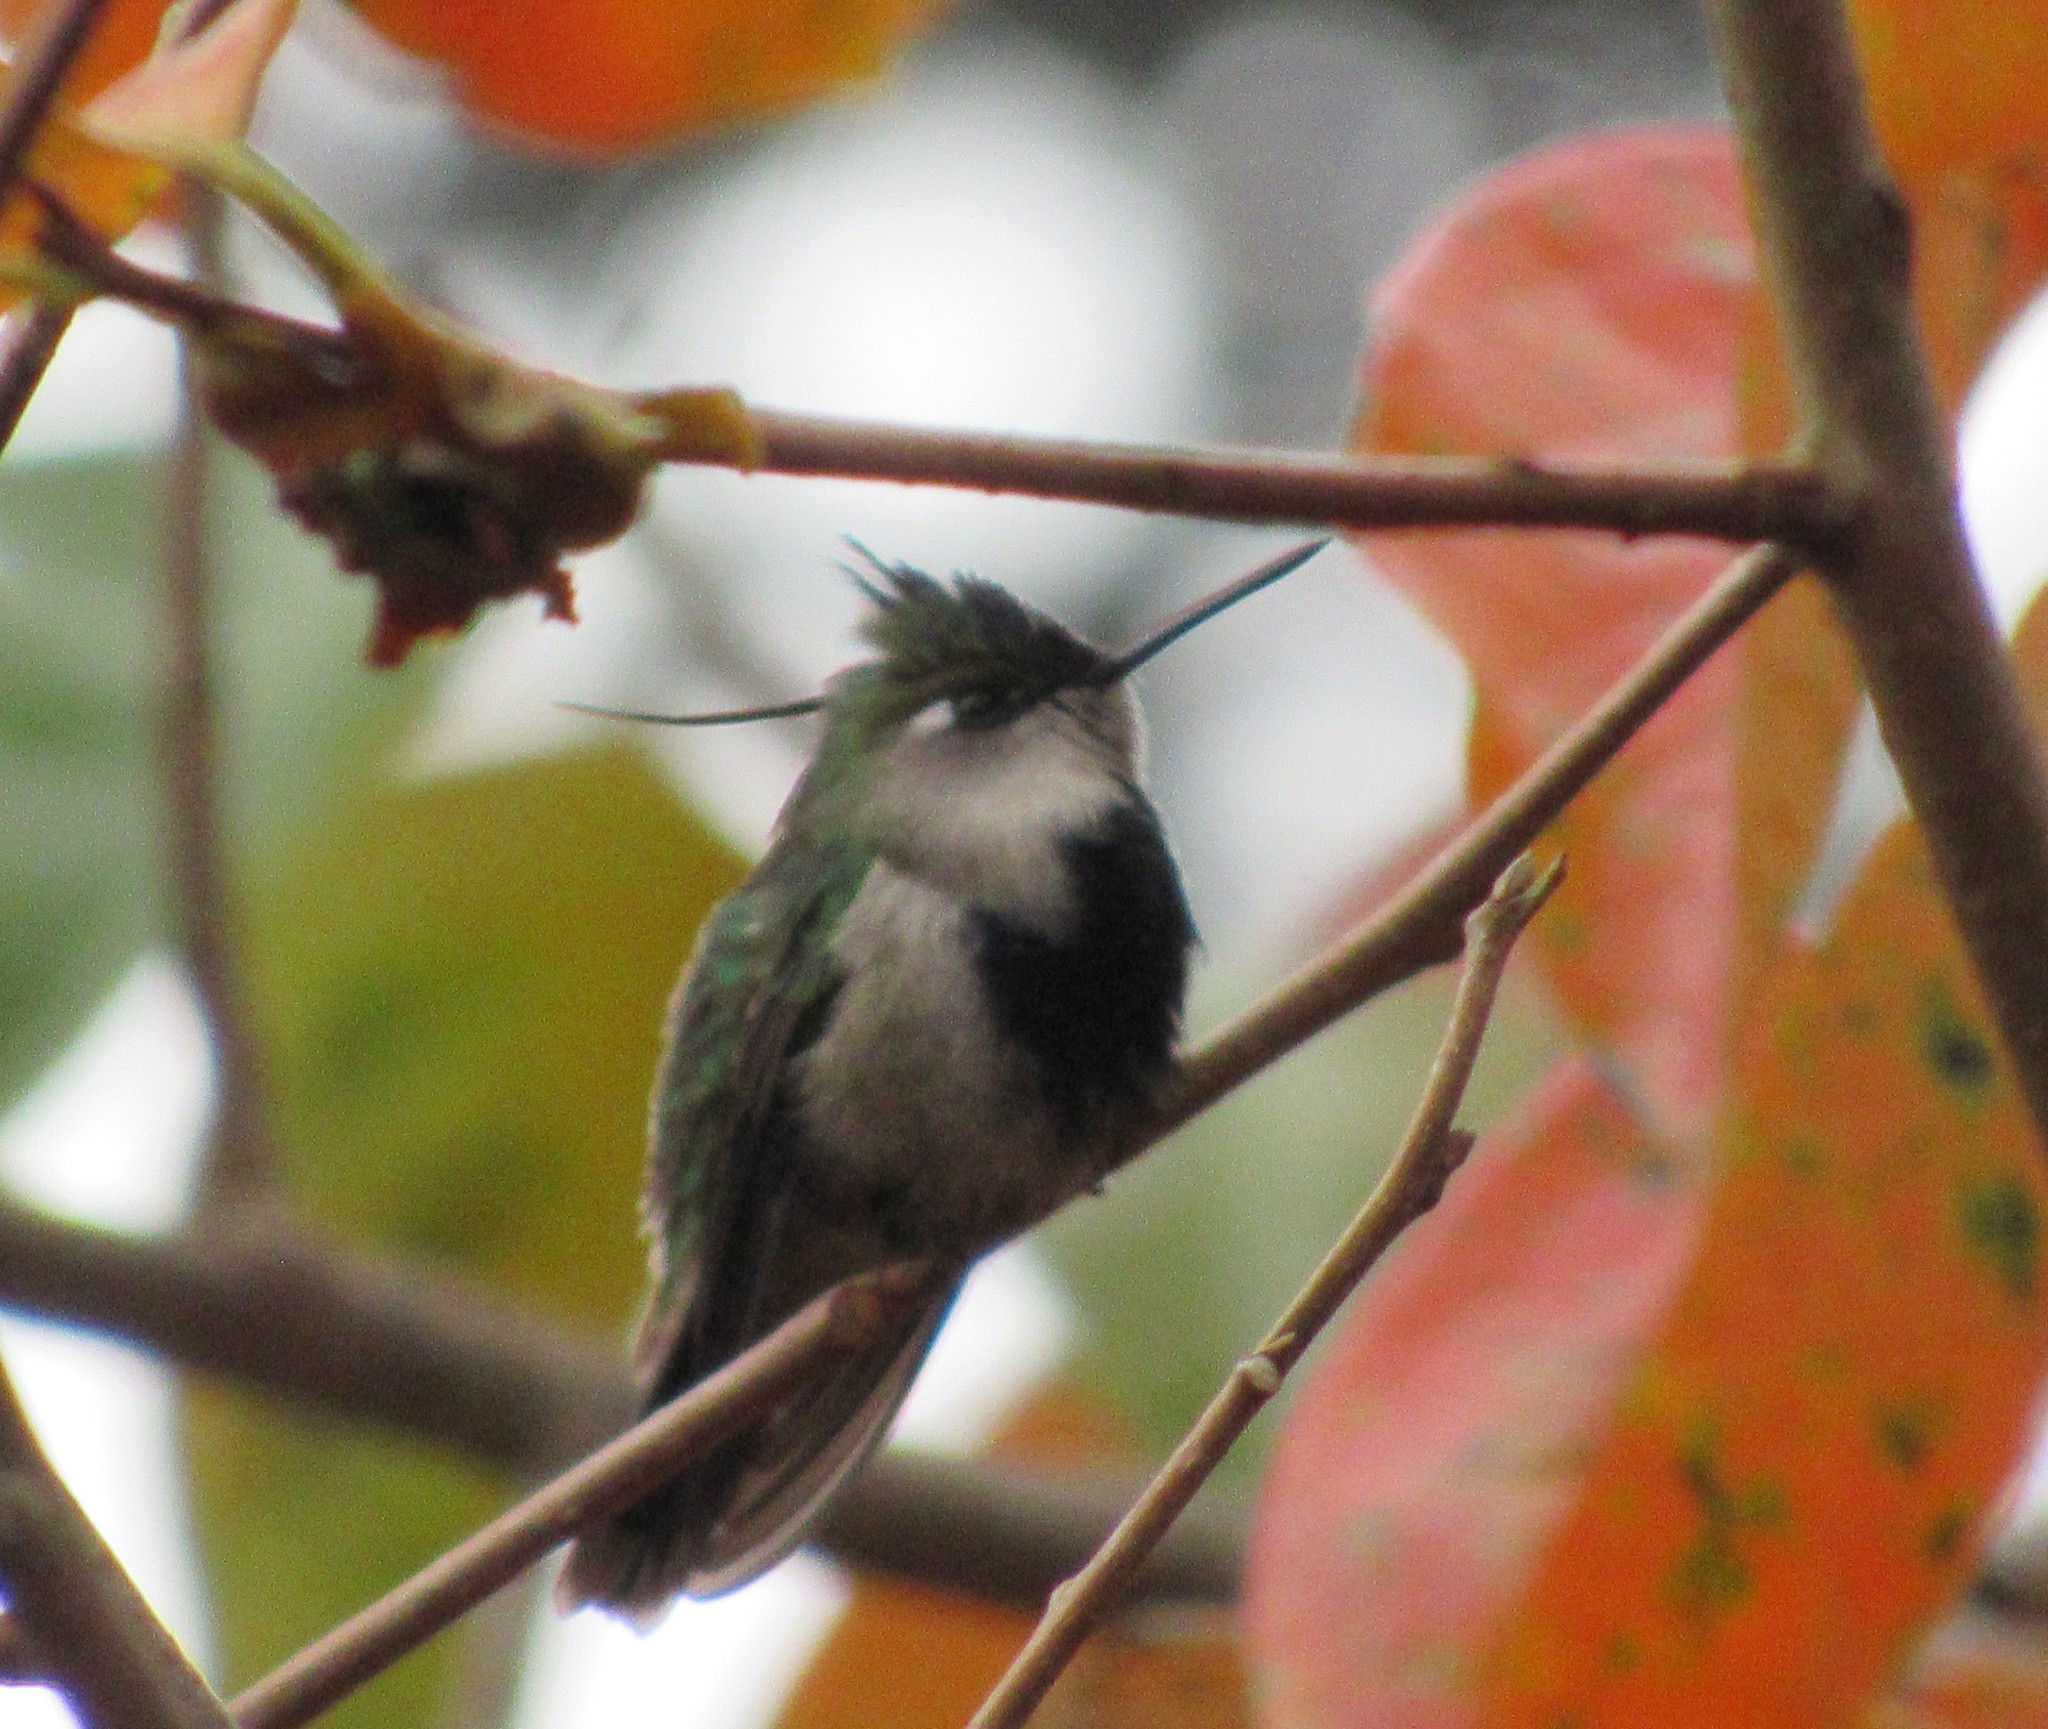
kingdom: Animalia
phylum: Chordata
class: Aves
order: Apodiformes
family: Trochilidae
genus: Stephanoxis
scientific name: Stephanoxis loddigesii
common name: Purple-crowned plovercrest
